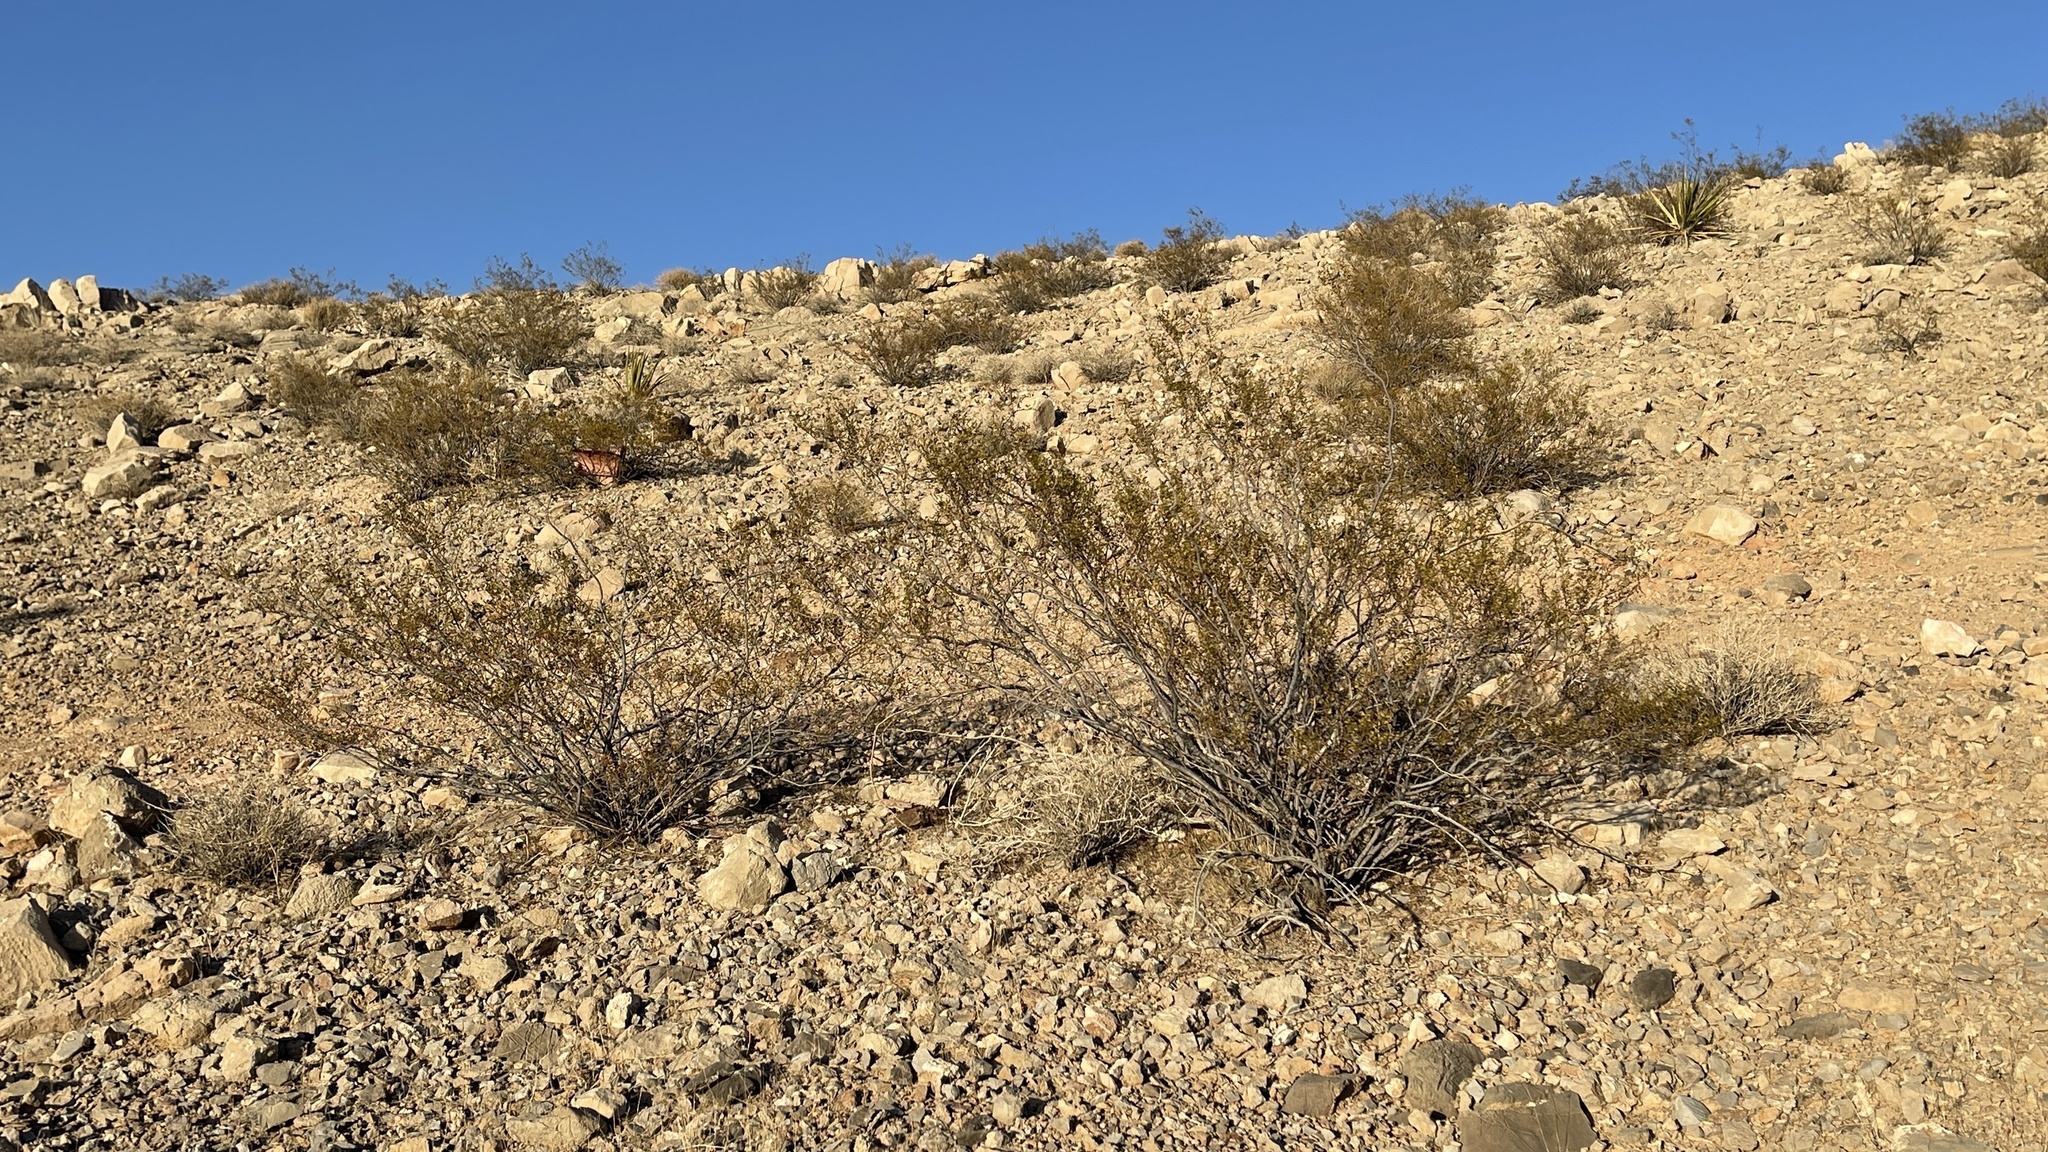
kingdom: Plantae
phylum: Tracheophyta
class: Magnoliopsida
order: Zygophyllales
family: Zygophyllaceae
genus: Larrea
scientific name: Larrea tridentata
